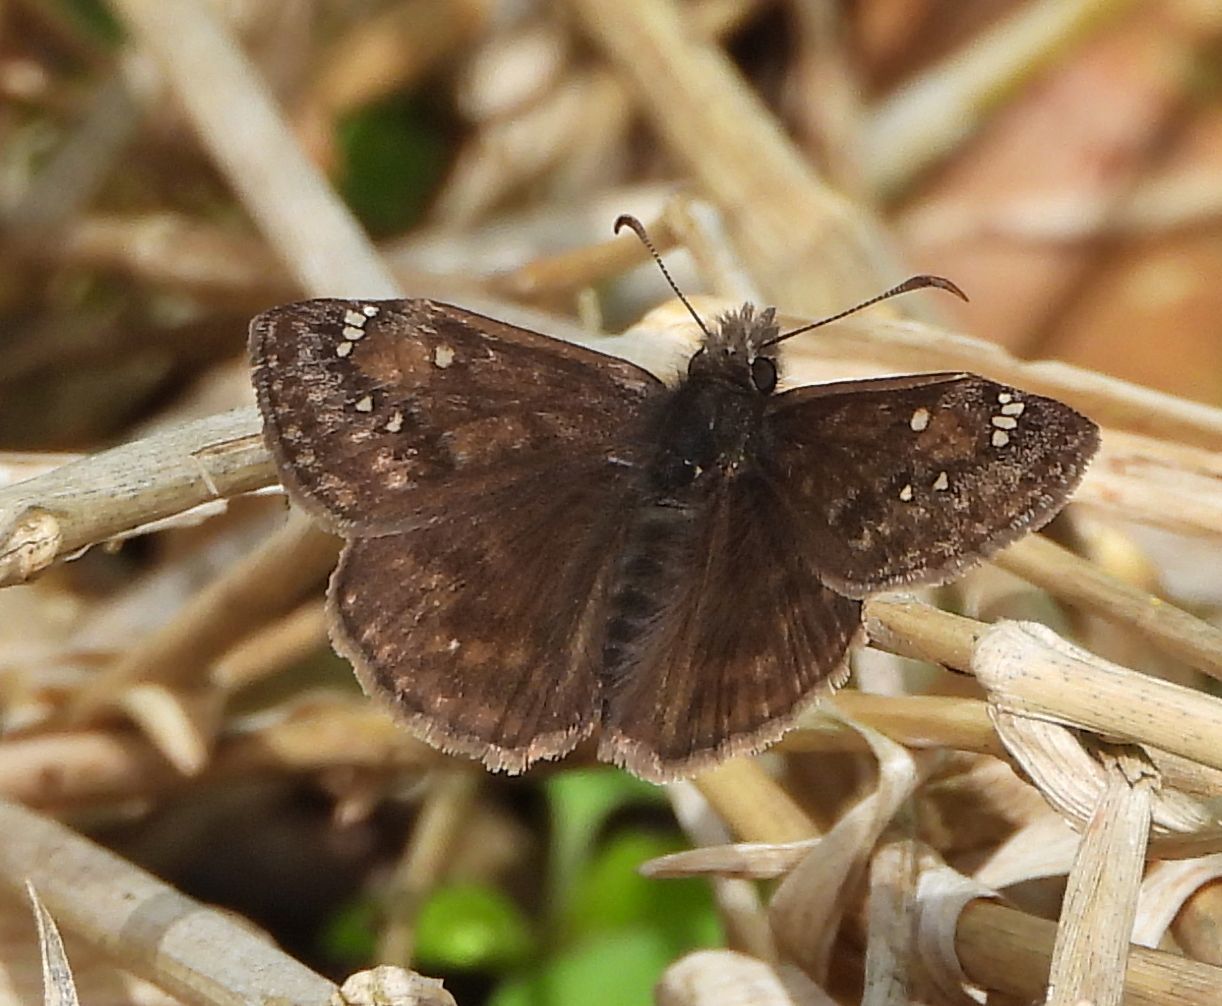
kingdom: Animalia
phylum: Arthropoda
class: Insecta
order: Lepidoptera
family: Hesperiidae
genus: Erynnis
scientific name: Erynnis juvenalis
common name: Juvenal's duskywing
